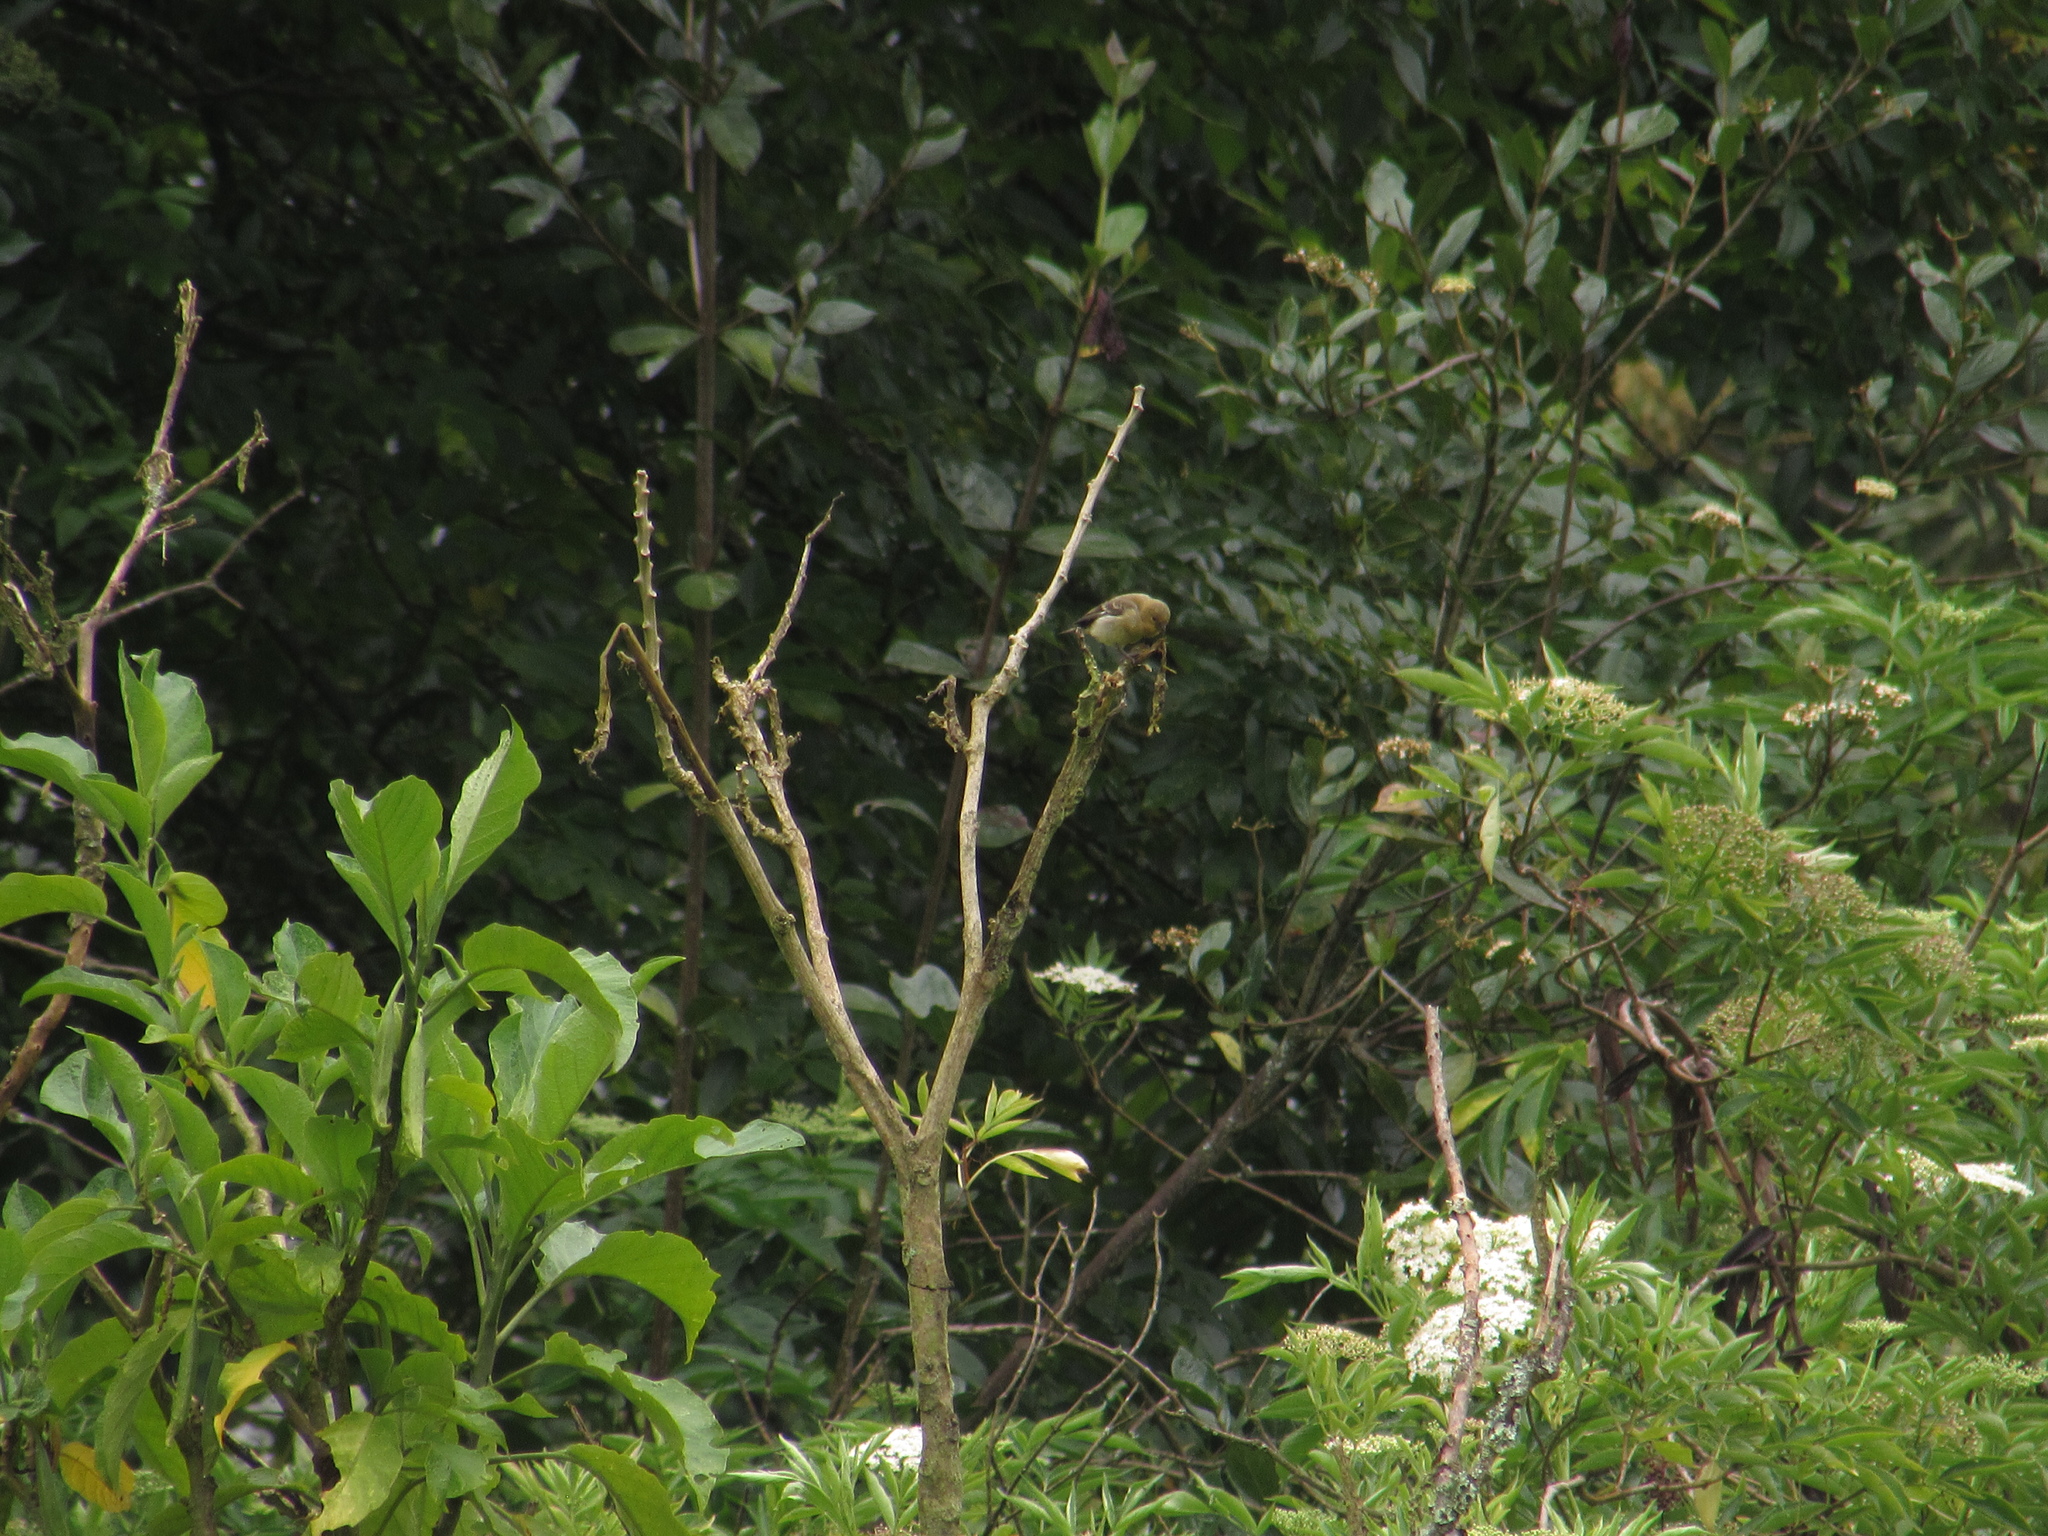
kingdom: Animalia
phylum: Chordata
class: Aves
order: Passeriformes
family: Fringillidae
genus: Spinus
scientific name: Spinus psaltria
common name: Lesser goldfinch
